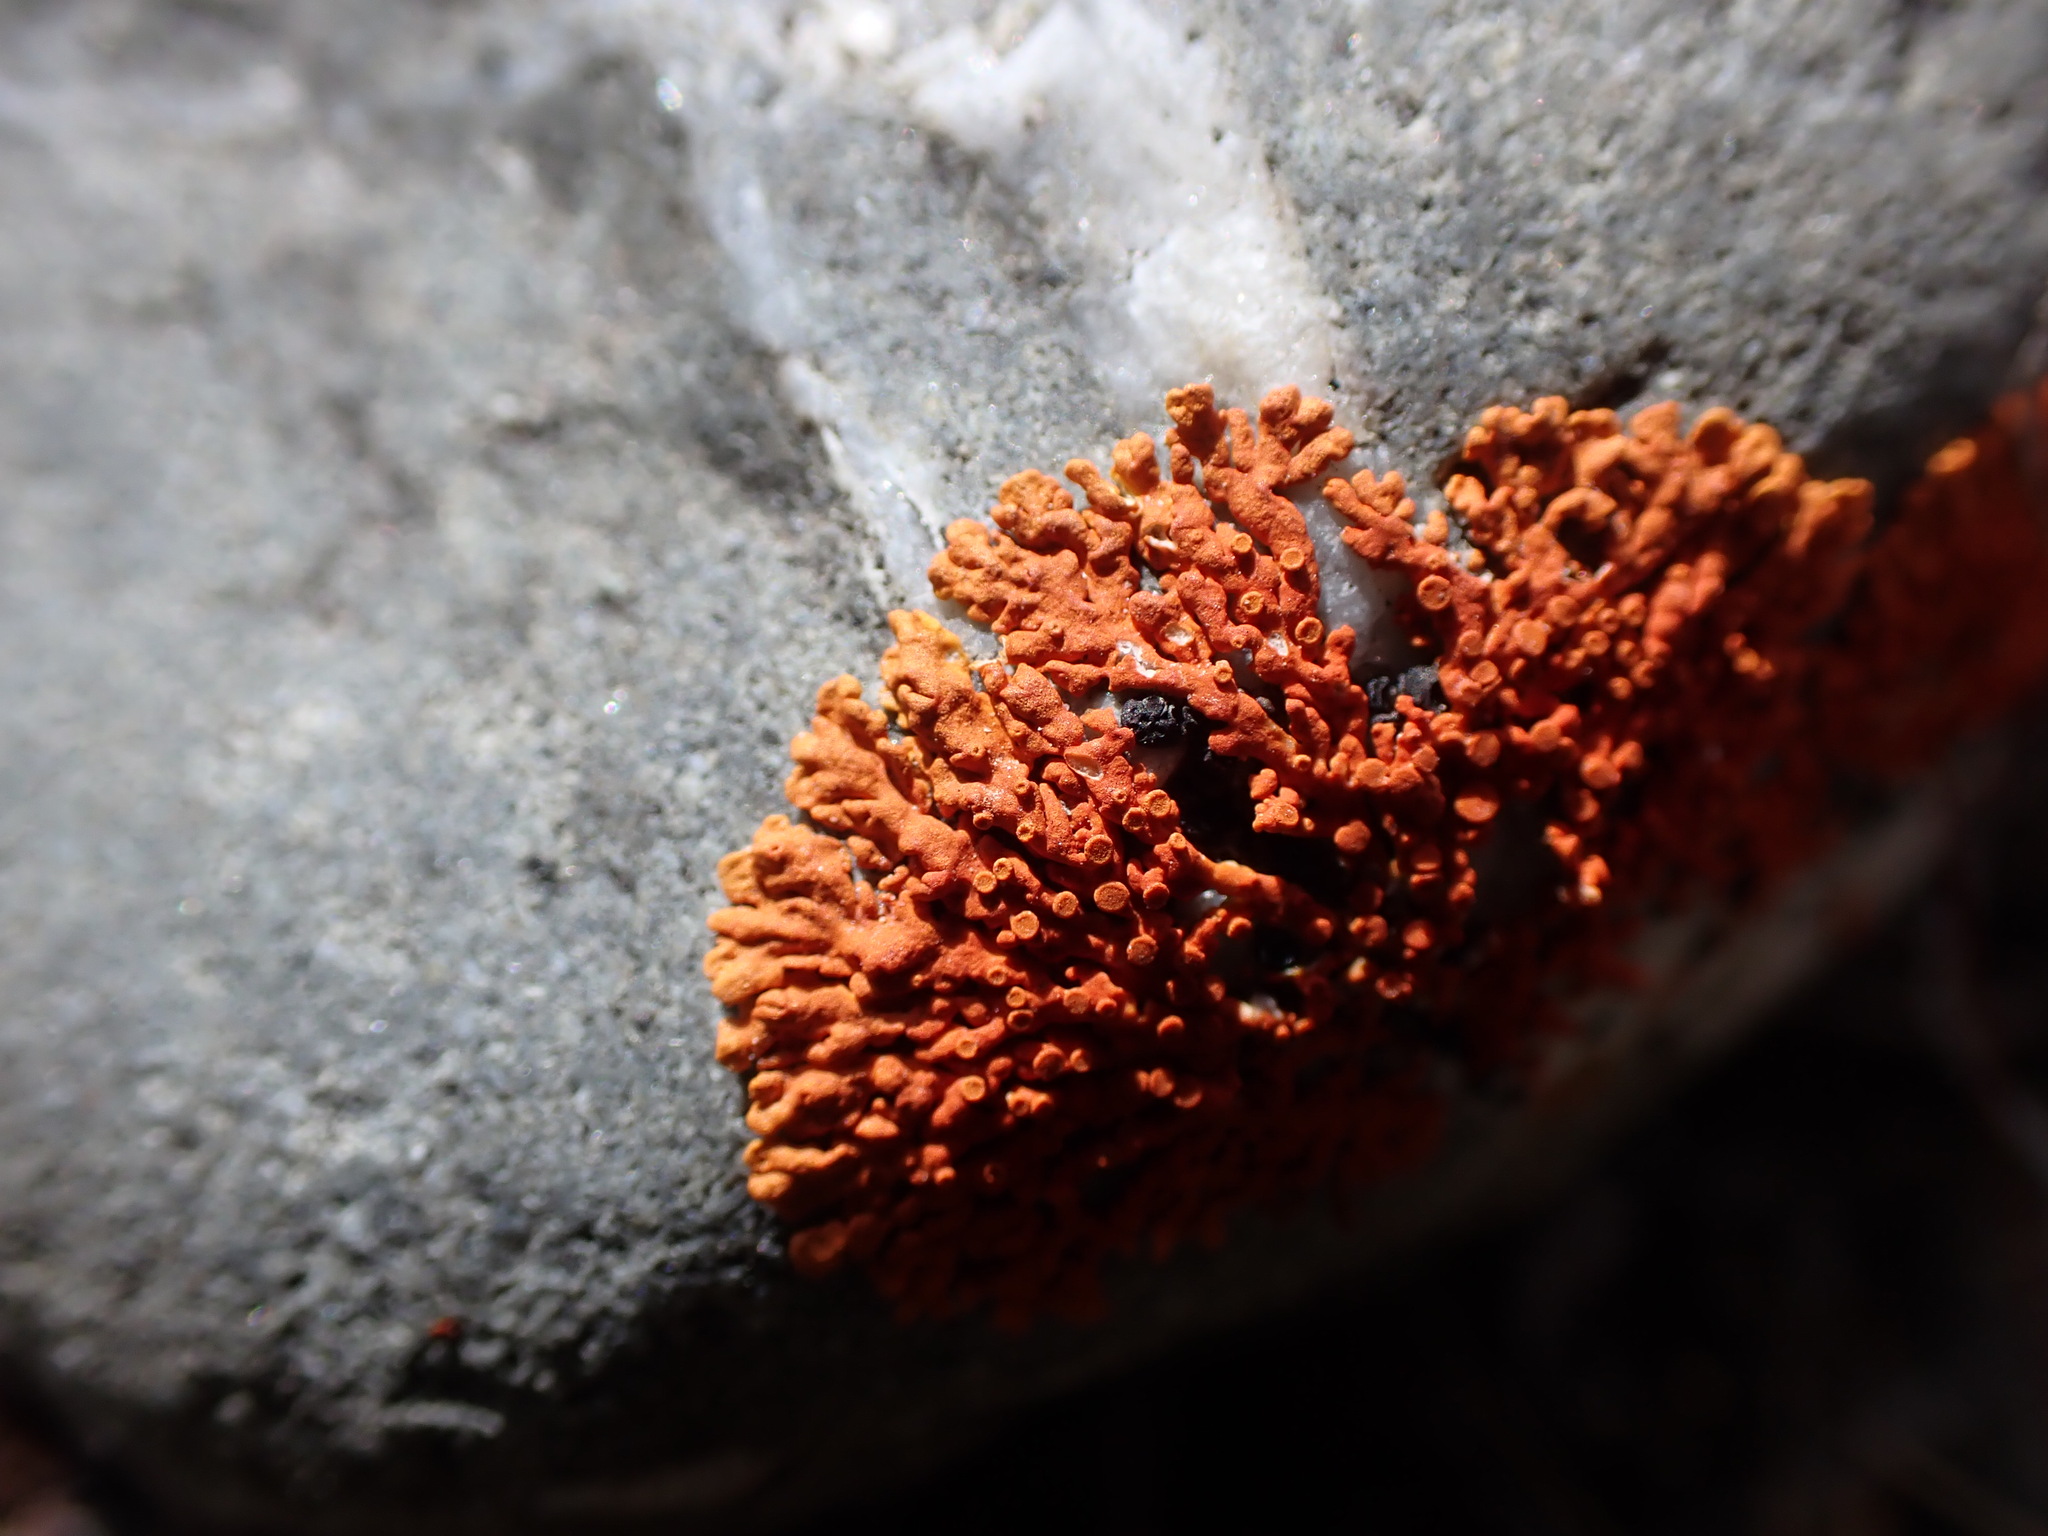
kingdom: Fungi
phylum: Ascomycota
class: Lecanoromycetes
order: Teloschistales
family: Teloschistaceae
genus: Xanthoria
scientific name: Xanthoria elegans
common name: Elegant sunburst lichen
